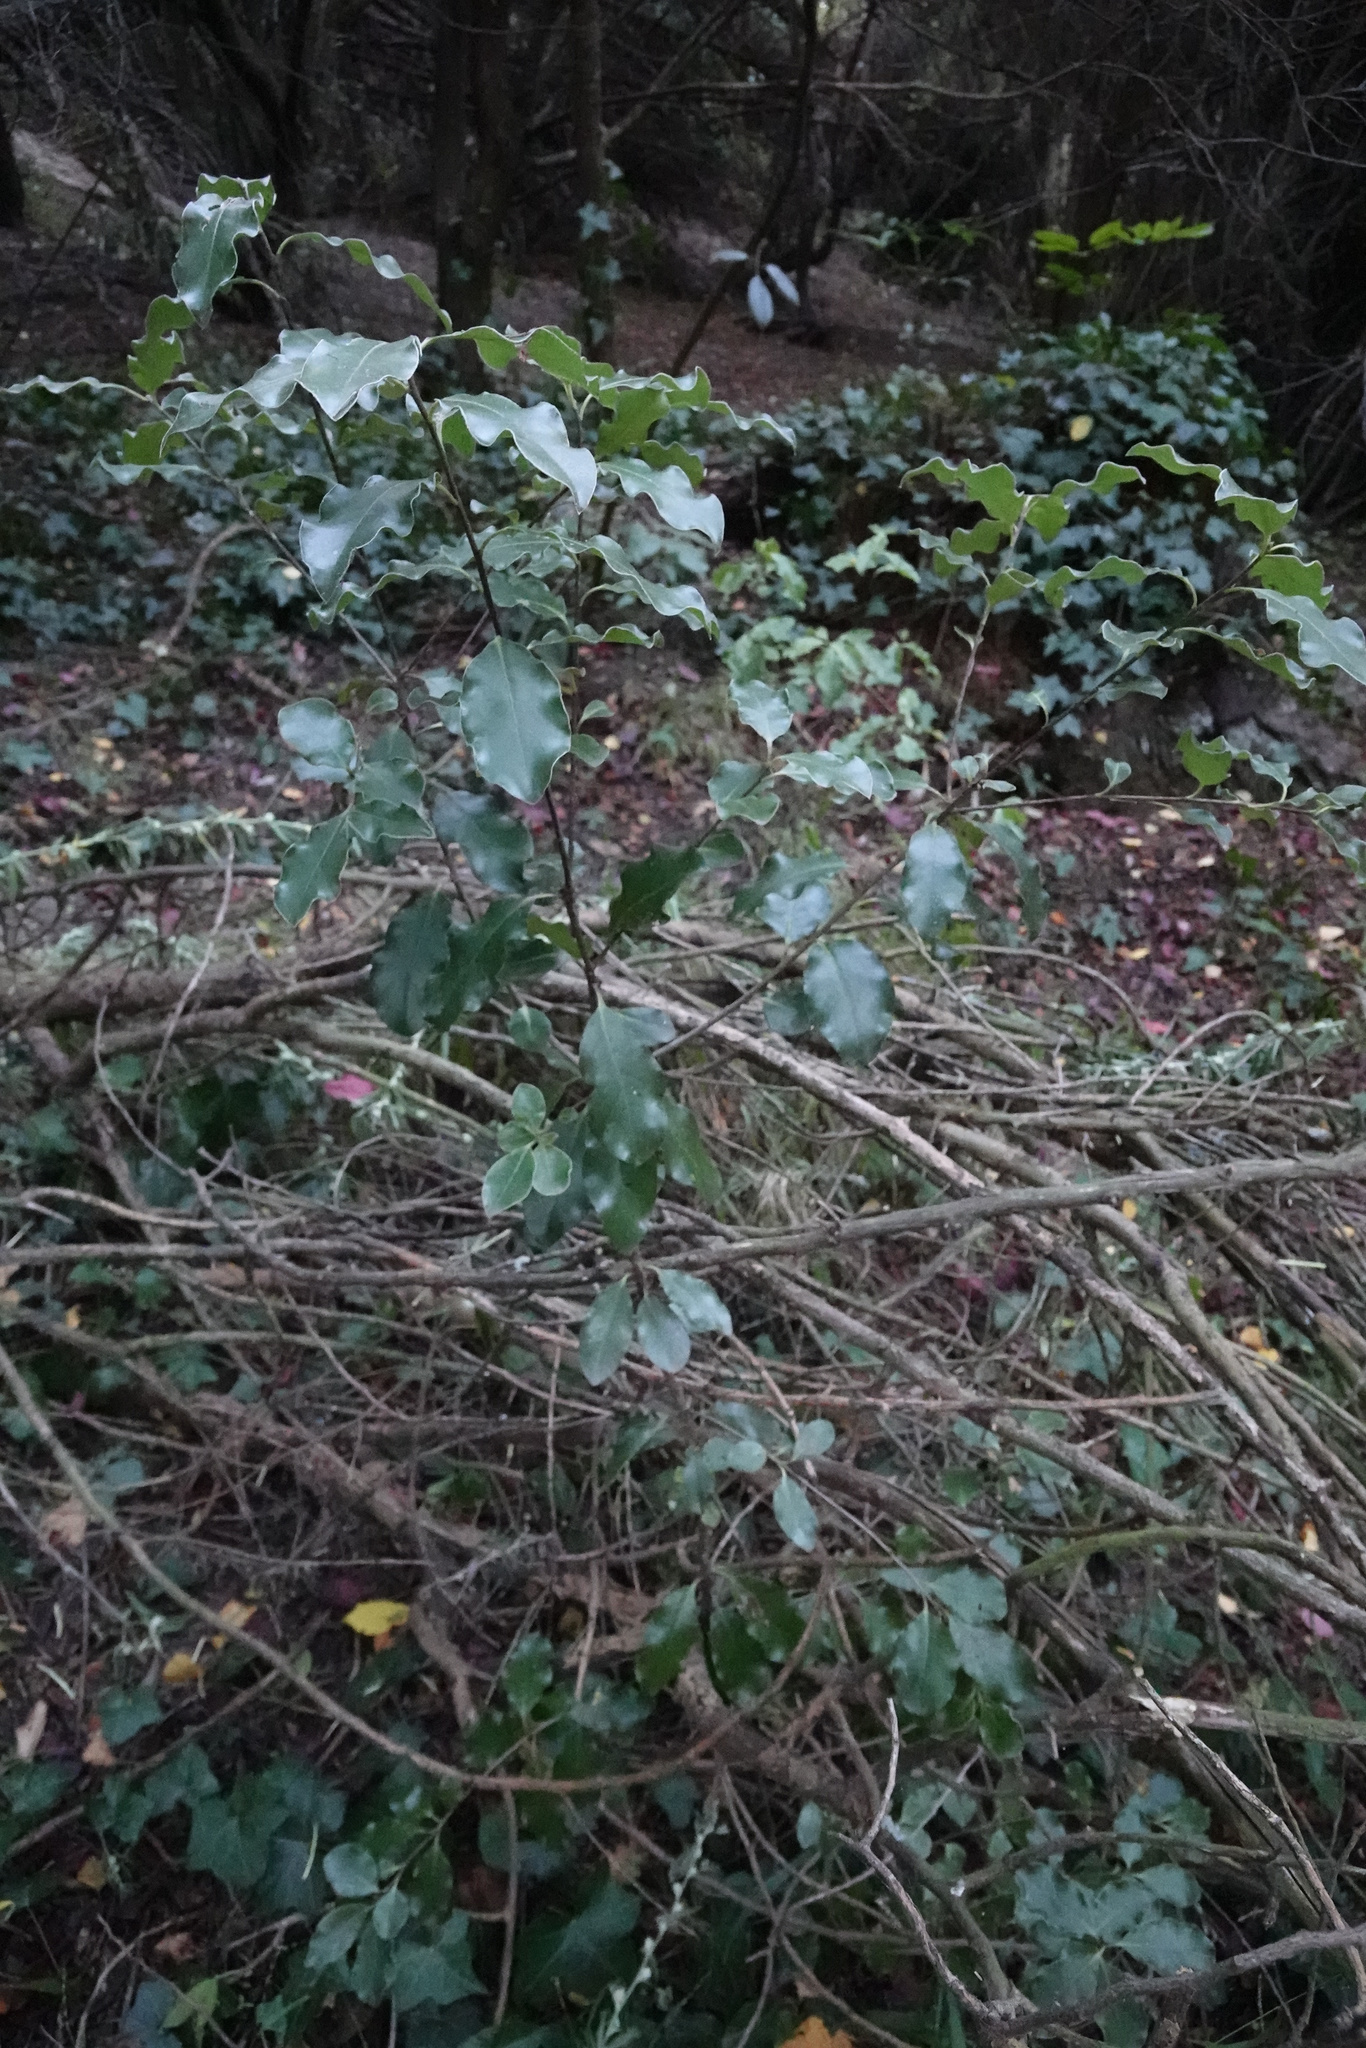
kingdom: Plantae
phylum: Tracheophyta
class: Magnoliopsida
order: Apiales
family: Pittosporaceae
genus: Pittosporum
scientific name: Pittosporum tenuifolium
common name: Kohuhu
